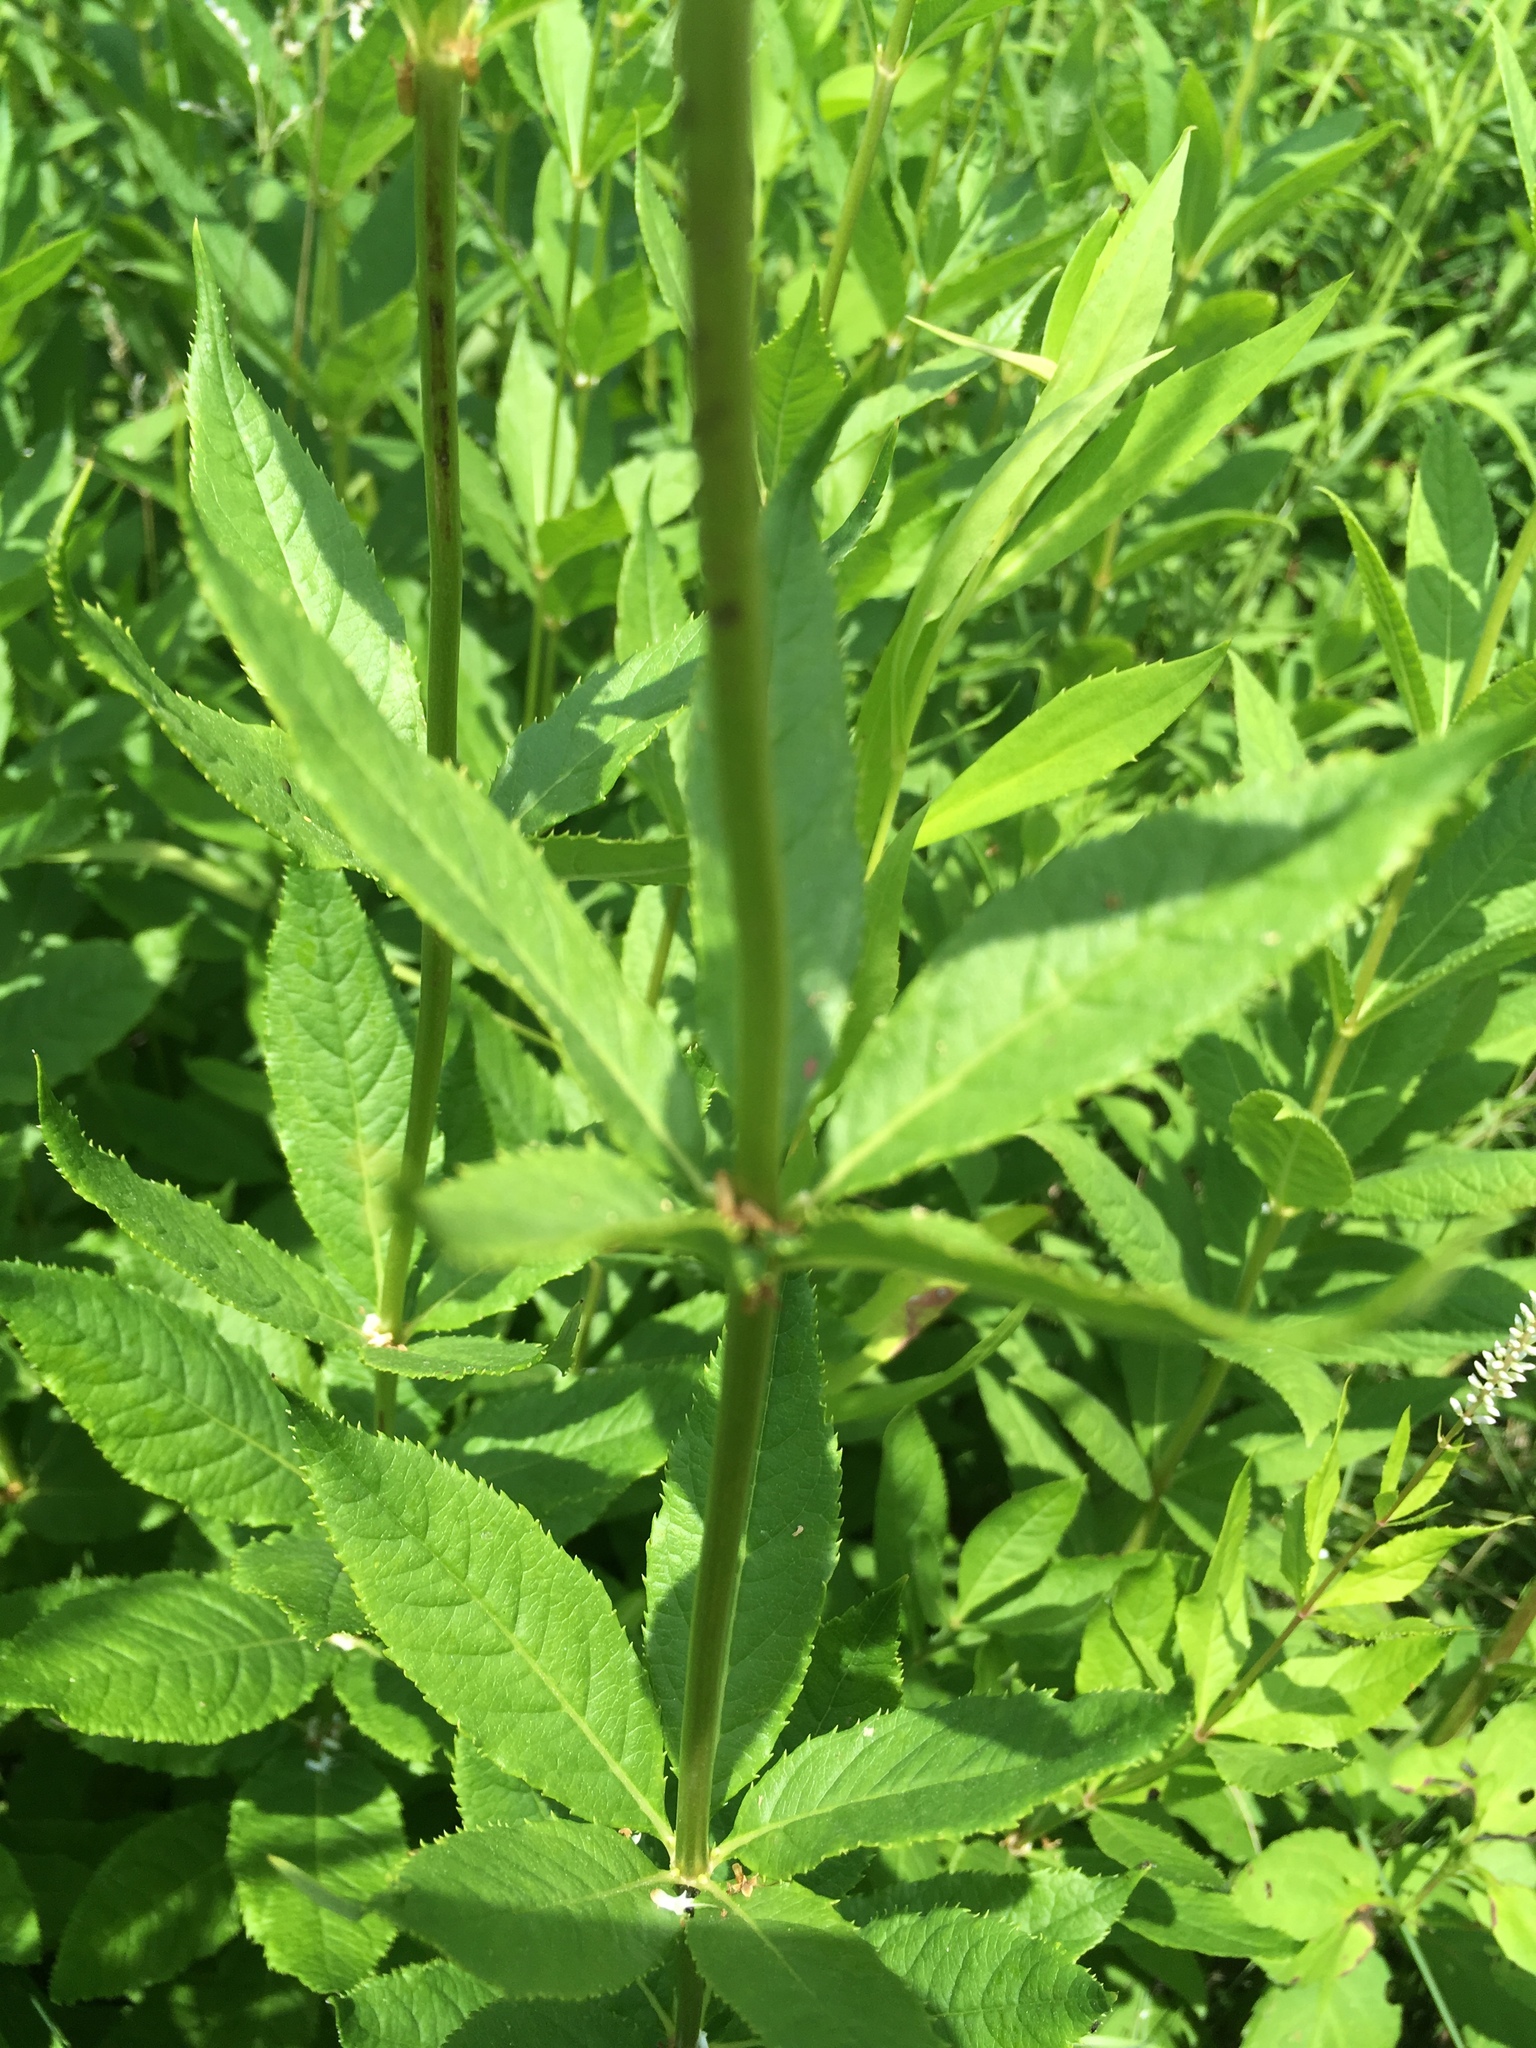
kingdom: Plantae
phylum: Tracheophyta
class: Magnoliopsida
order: Lamiales
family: Plantaginaceae
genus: Veronicastrum
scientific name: Veronicastrum virginicum
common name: Blackroot
